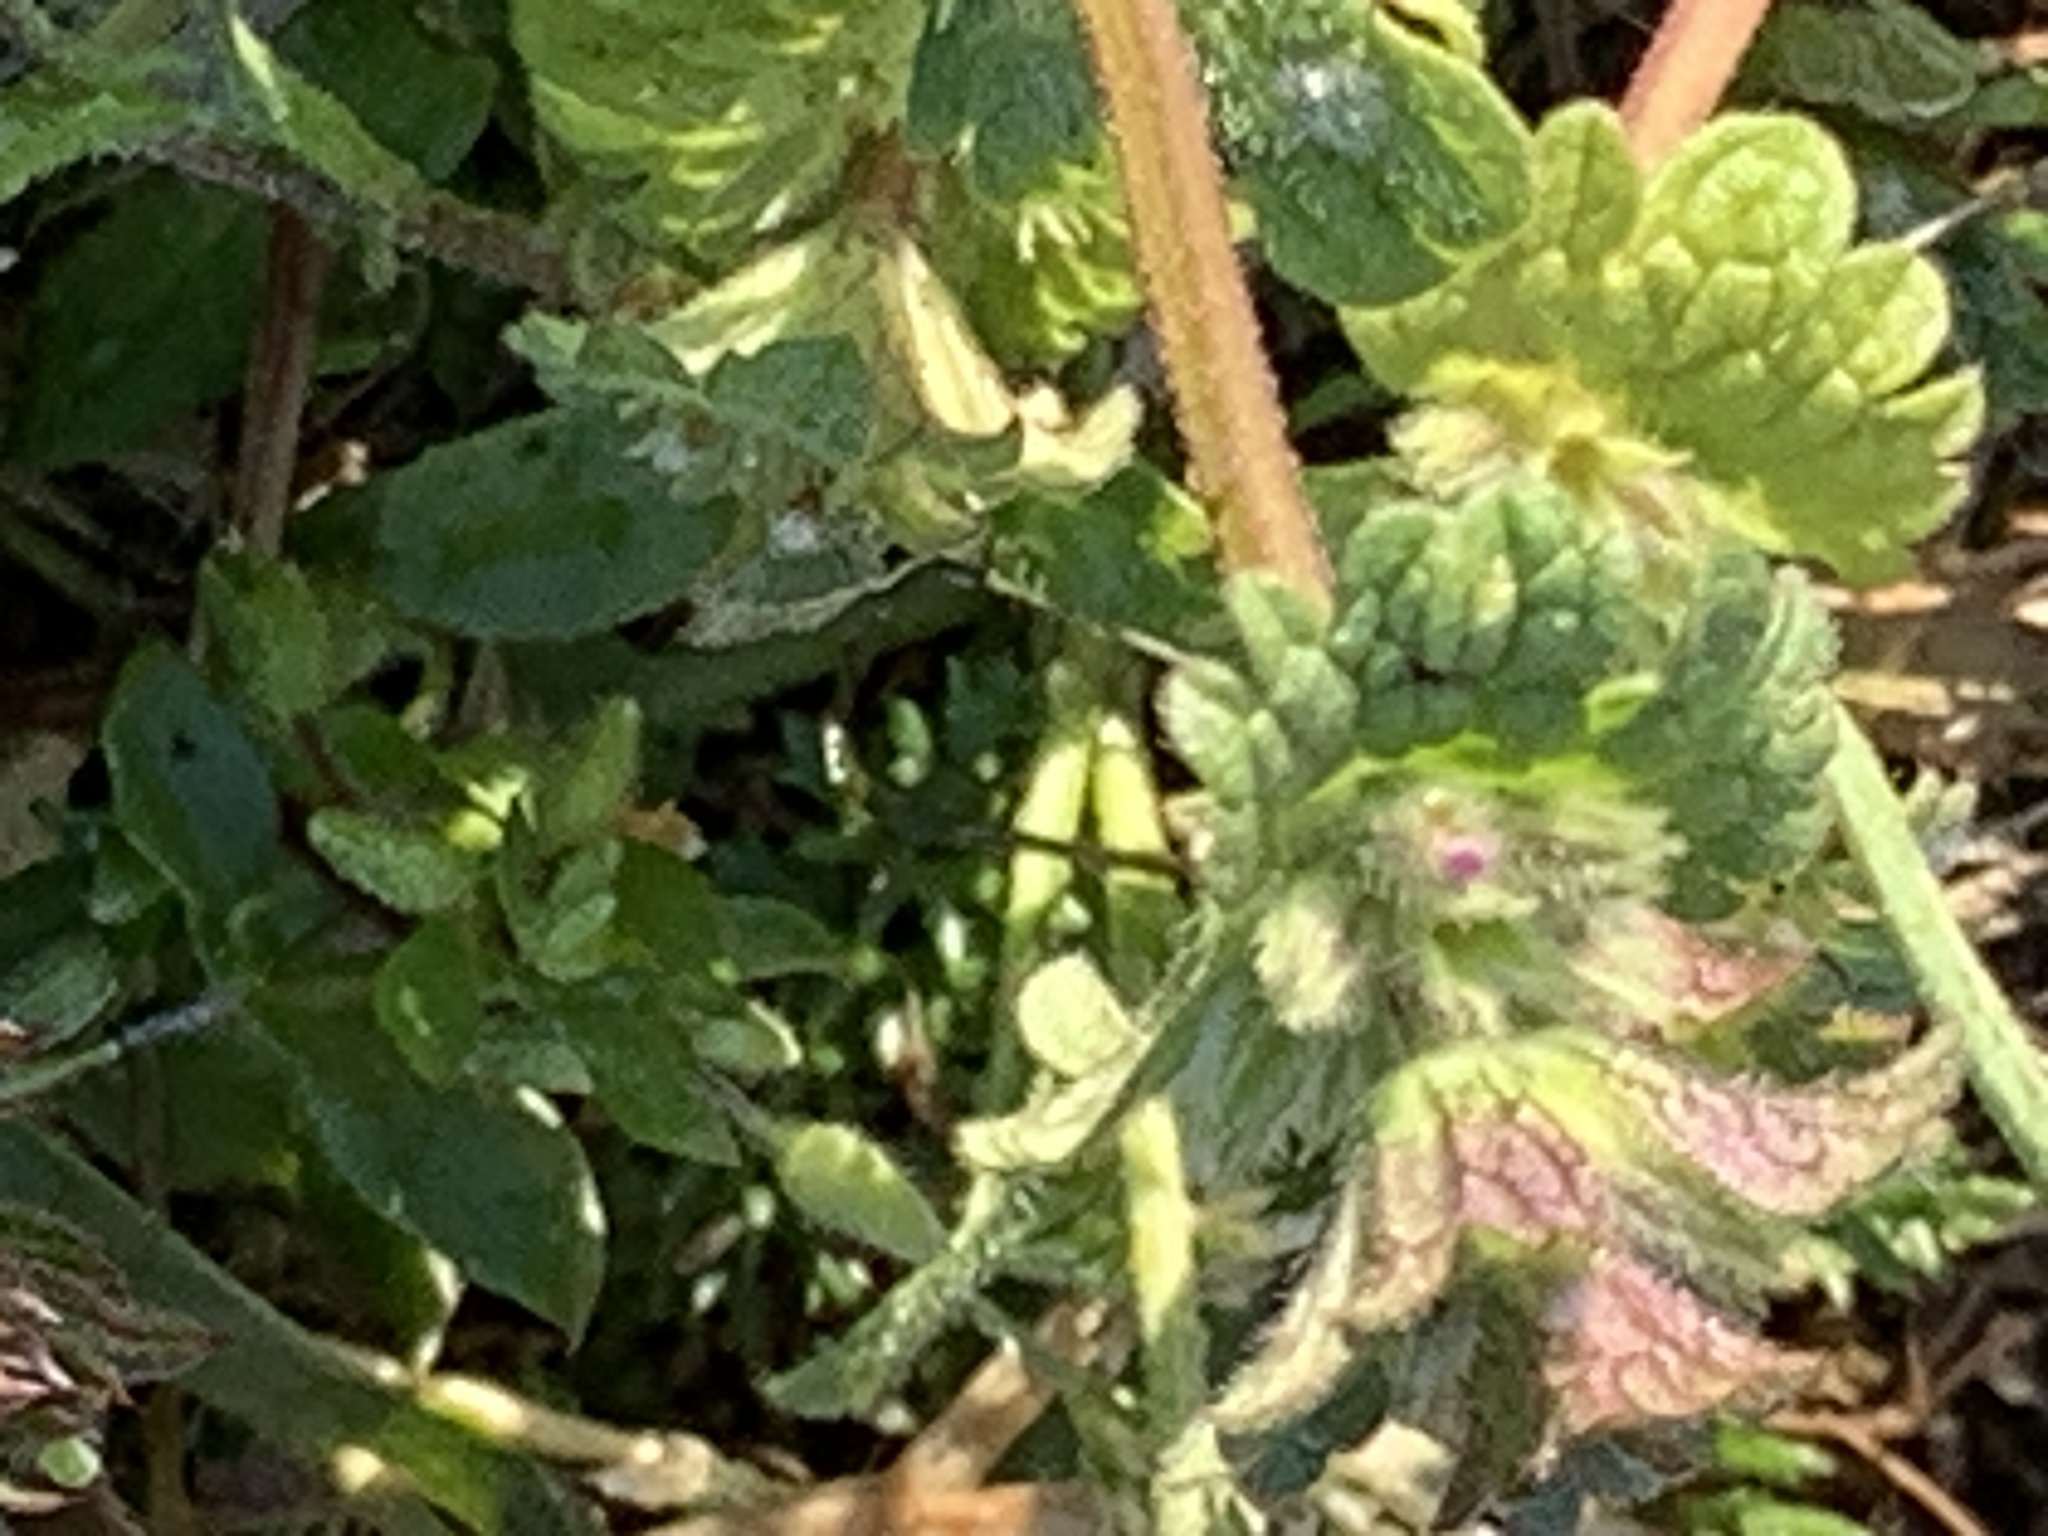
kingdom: Plantae
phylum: Tracheophyta
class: Magnoliopsida
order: Lamiales
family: Lamiaceae
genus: Lamium
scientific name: Lamium amplexicaule
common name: Henbit dead-nettle
